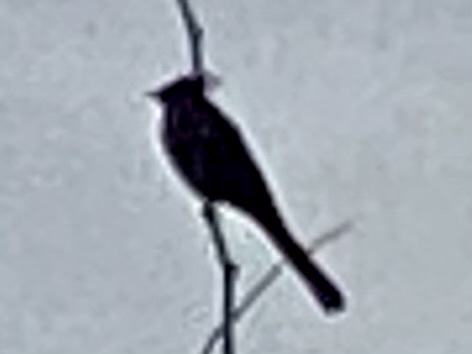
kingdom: Animalia
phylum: Chordata
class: Aves
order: Passeriformes
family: Ptilogonatidae
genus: Phainopepla
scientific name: Phainopepla nitens
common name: Phainopepla
